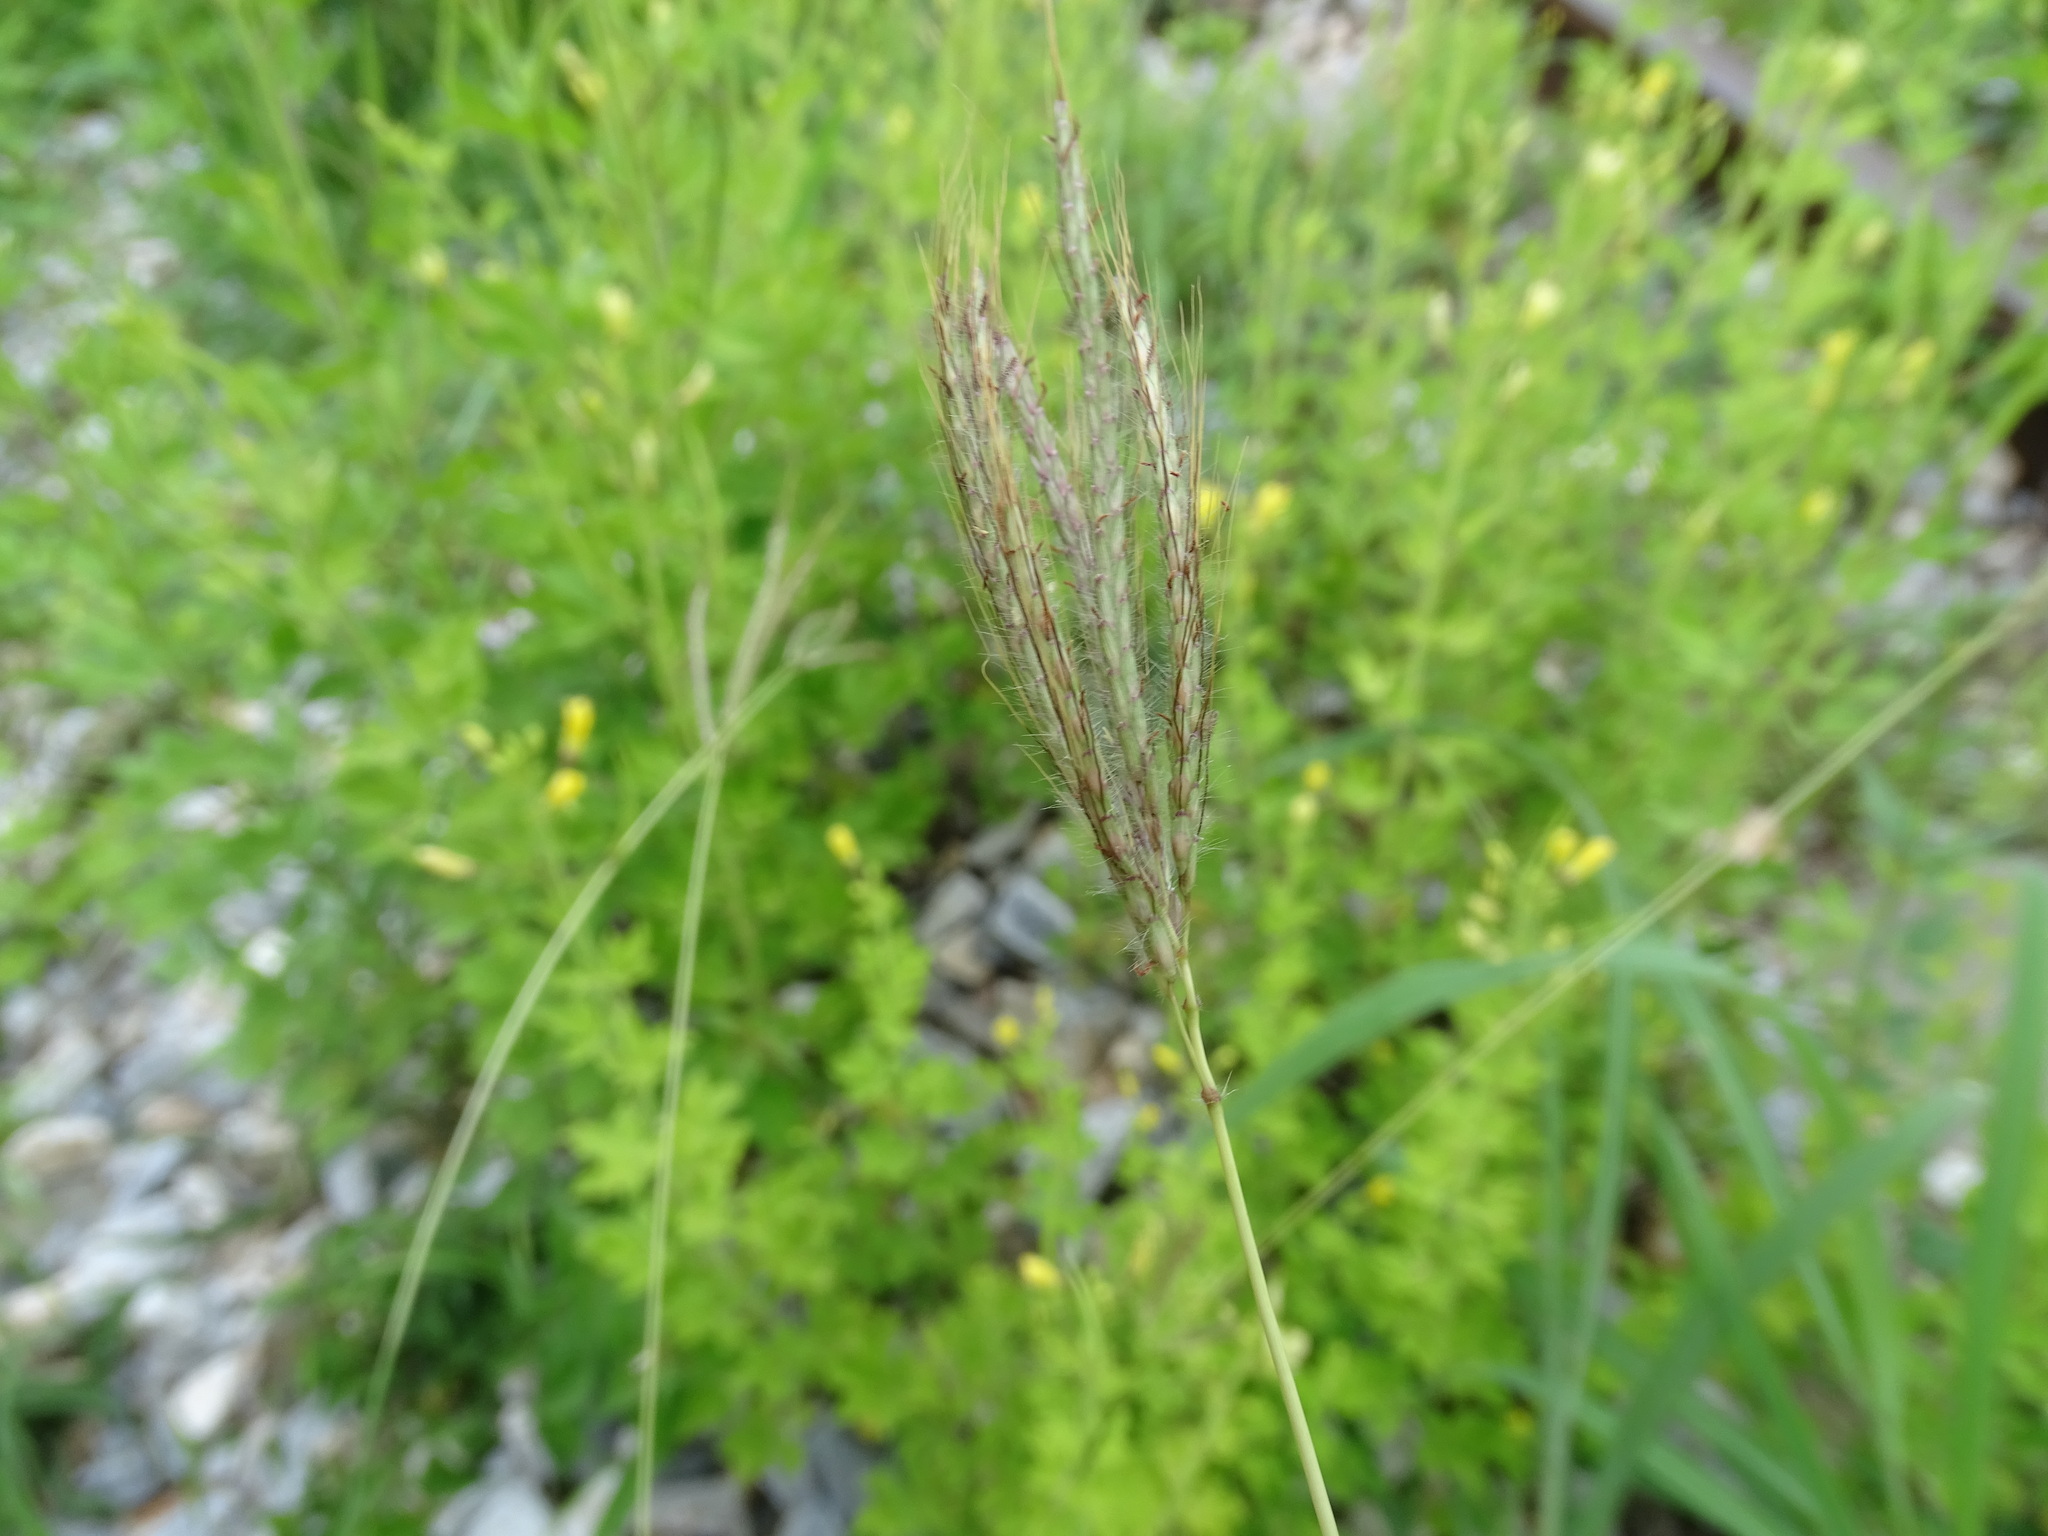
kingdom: Plantae
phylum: Tracheophyta
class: Liliopsida
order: Poales
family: Poaceae
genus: Dichanthium
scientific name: Dichanthium annulatum
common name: Kleberg's bluestem
